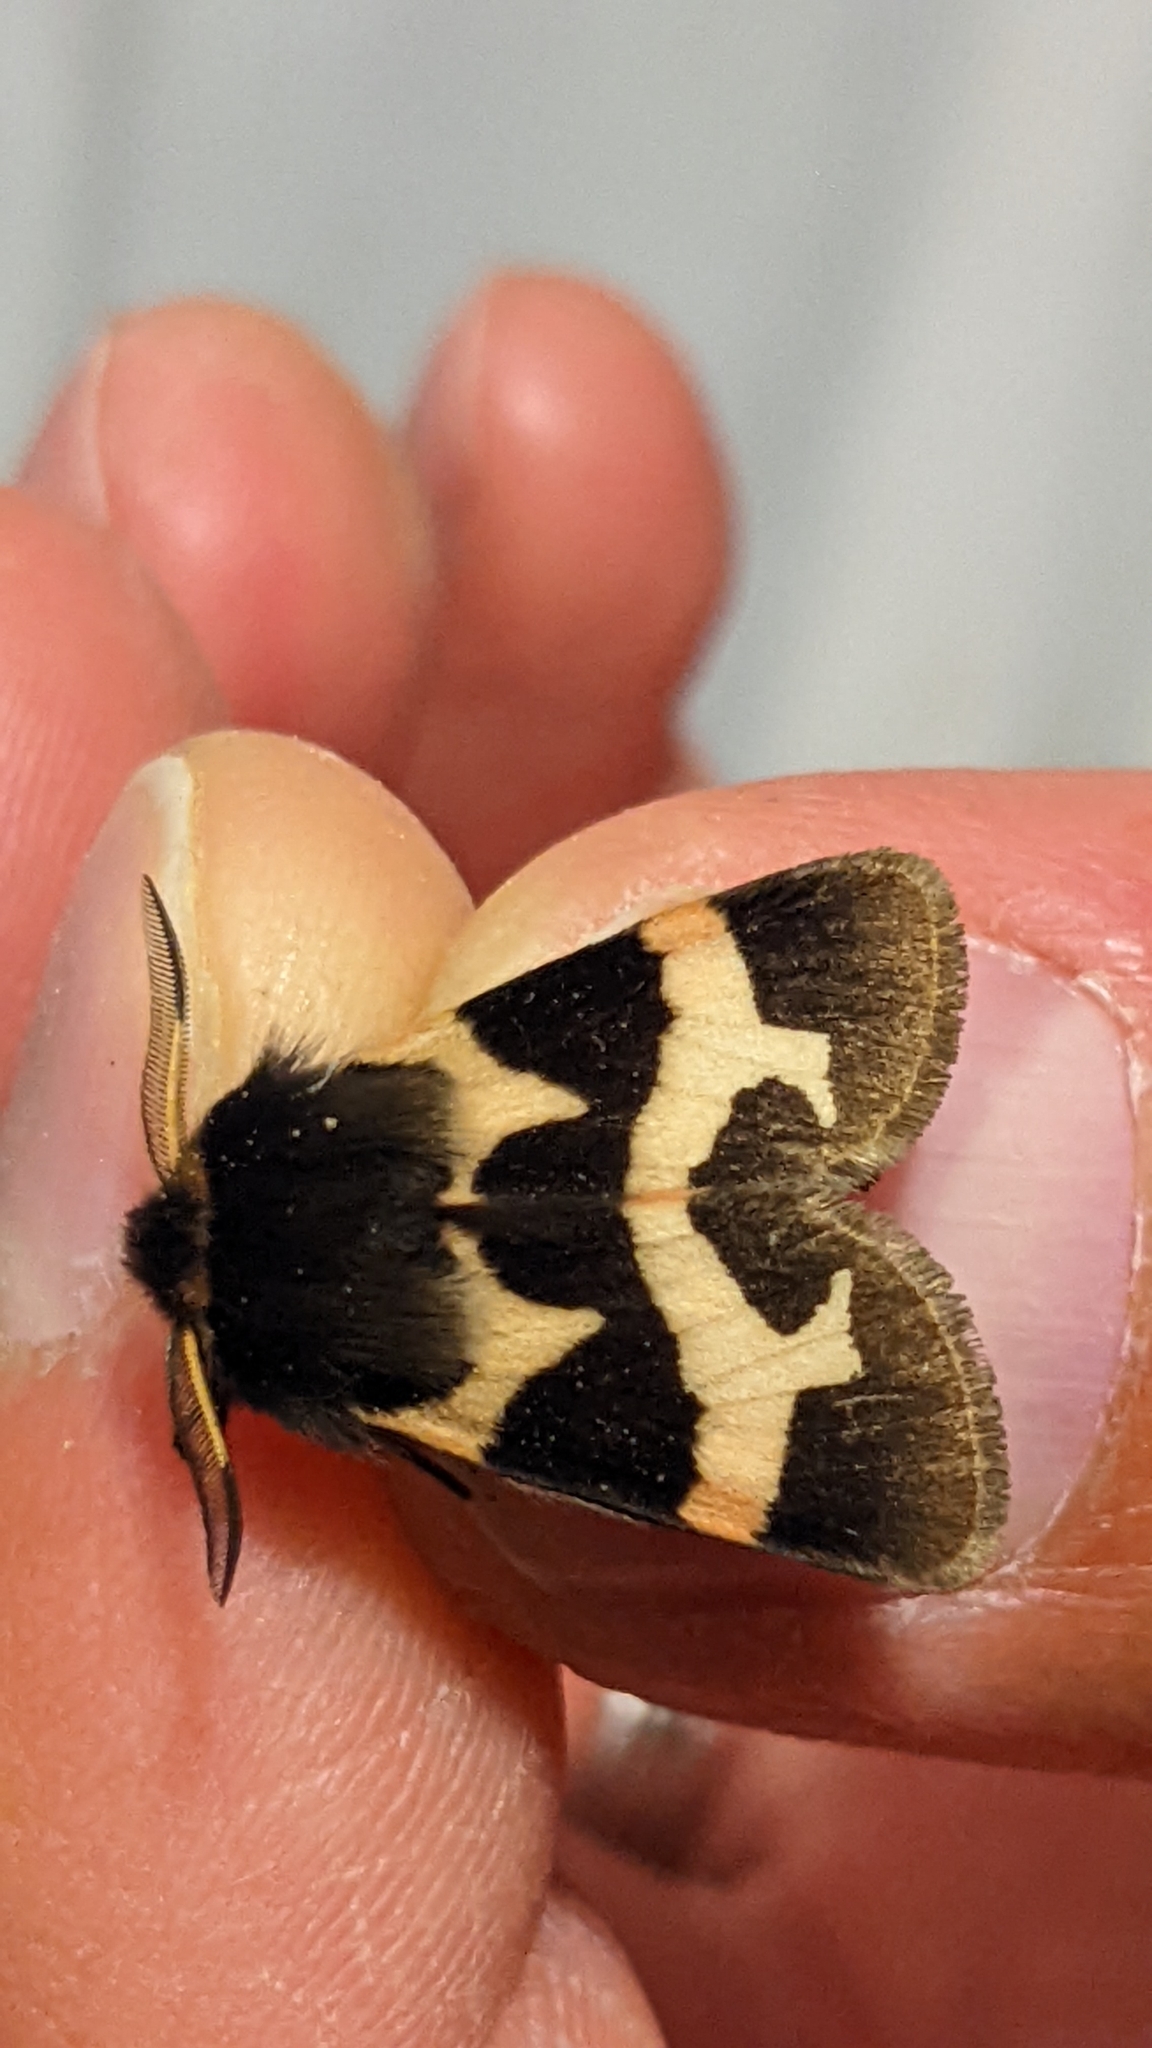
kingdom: Animalia
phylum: Arthropoda
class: Insecta
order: Lepidoptera
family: Erebidae
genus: Watsonarctia
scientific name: Watsonarctia deserta
